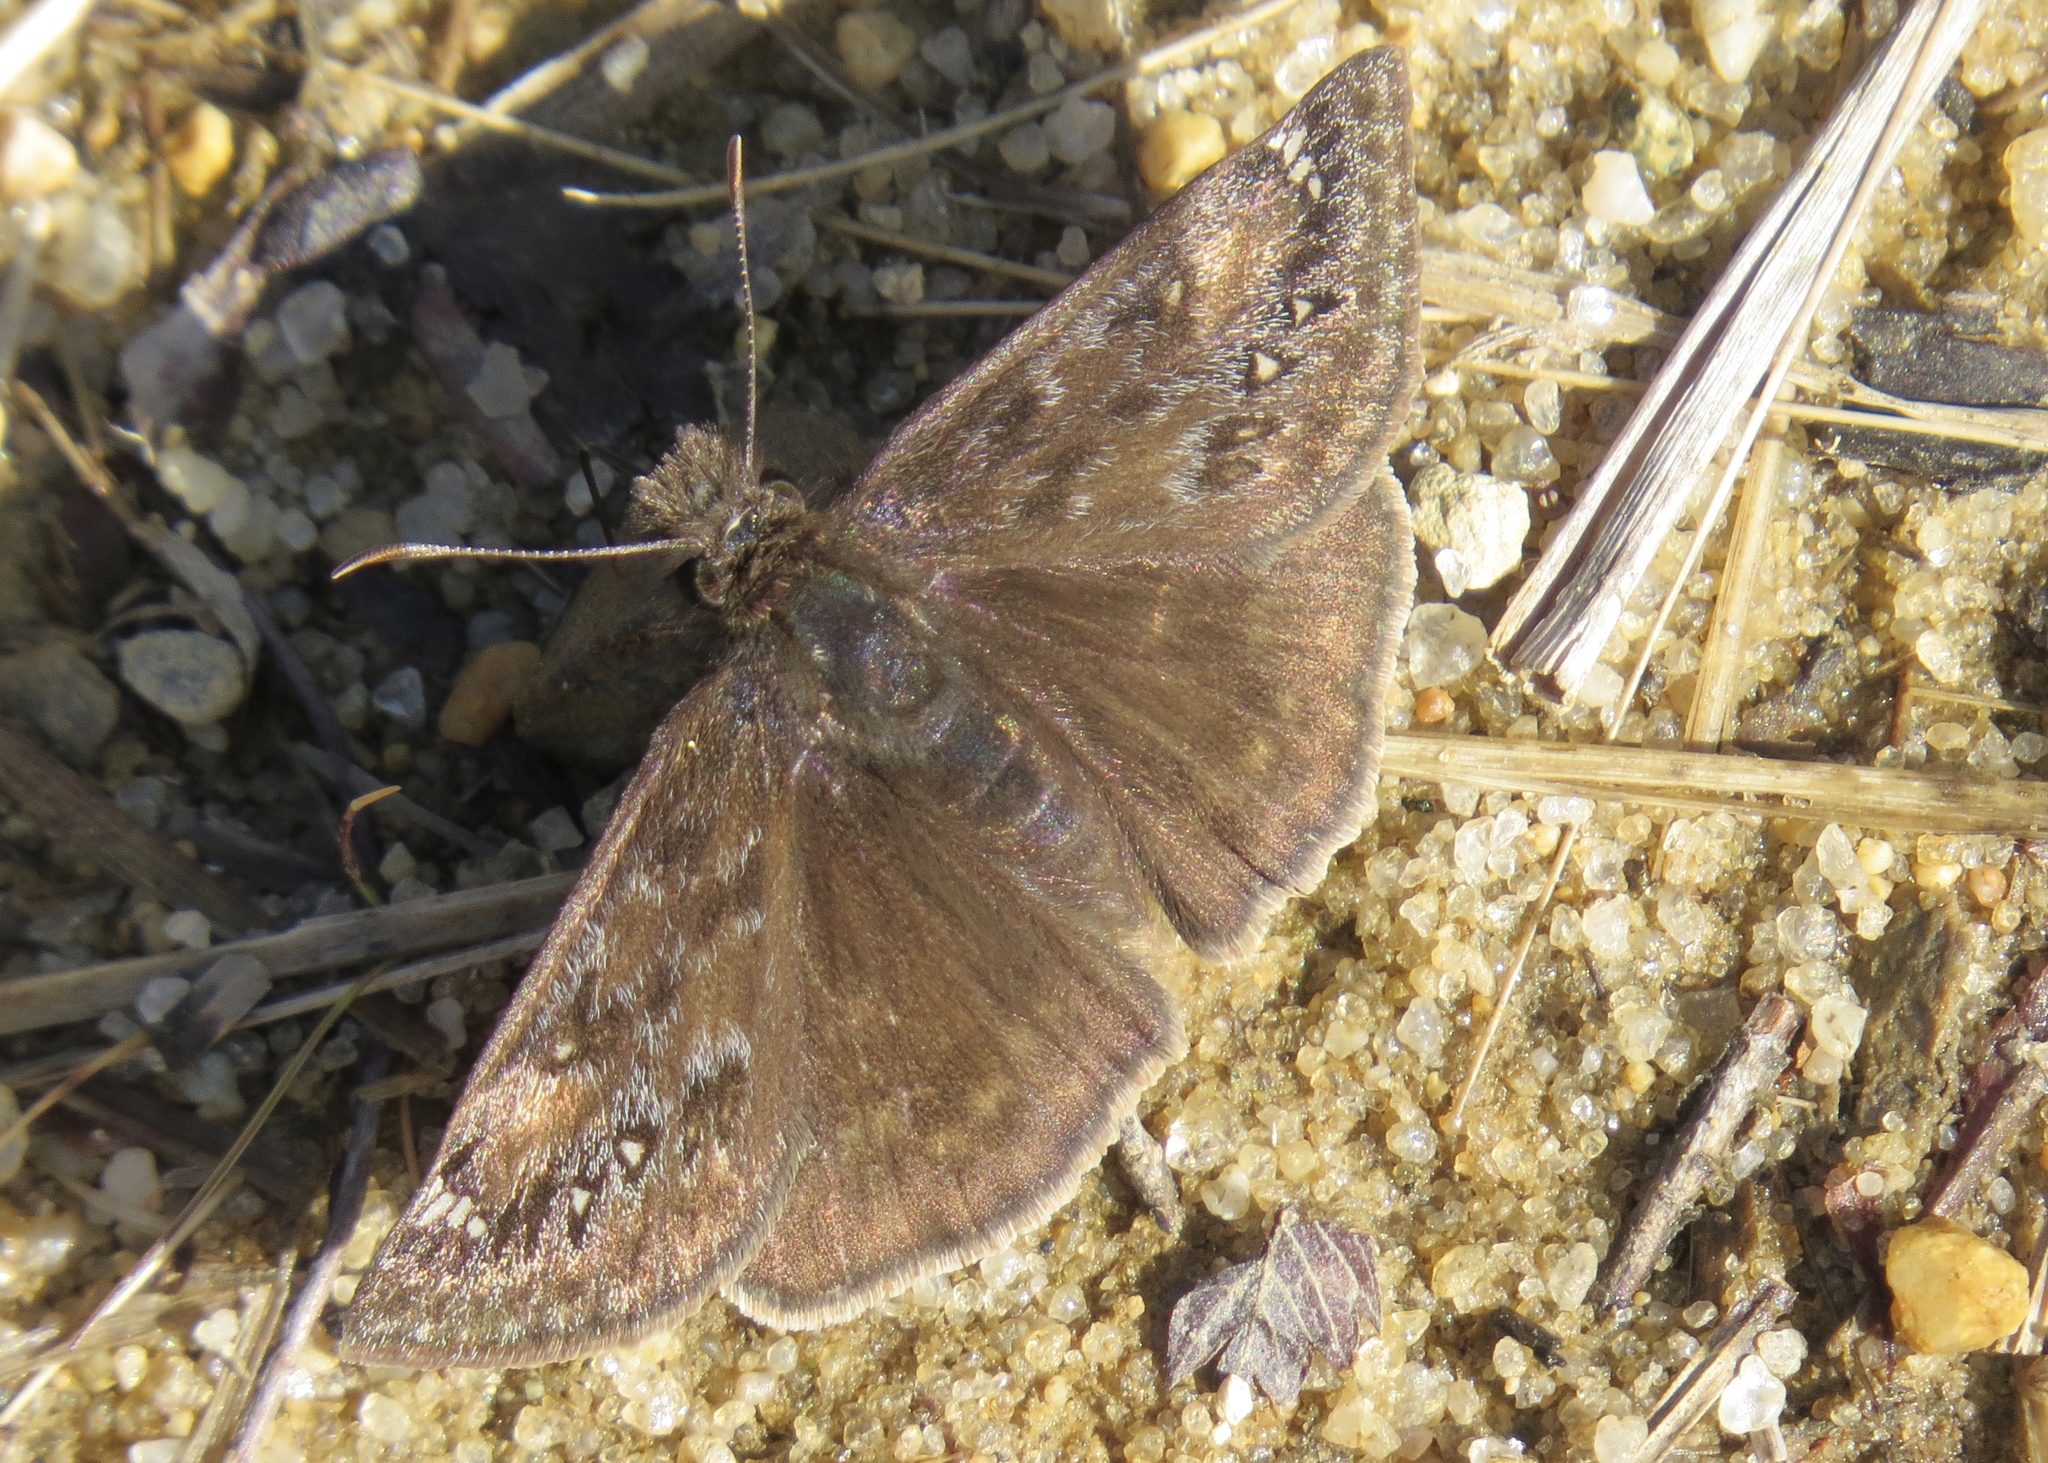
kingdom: Animalia
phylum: Arthropoda
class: Insecta
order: Lepidoptera
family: Hesperiidae
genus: Erynnis
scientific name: Erynnis juvenalis
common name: Juvenal's duskywing
